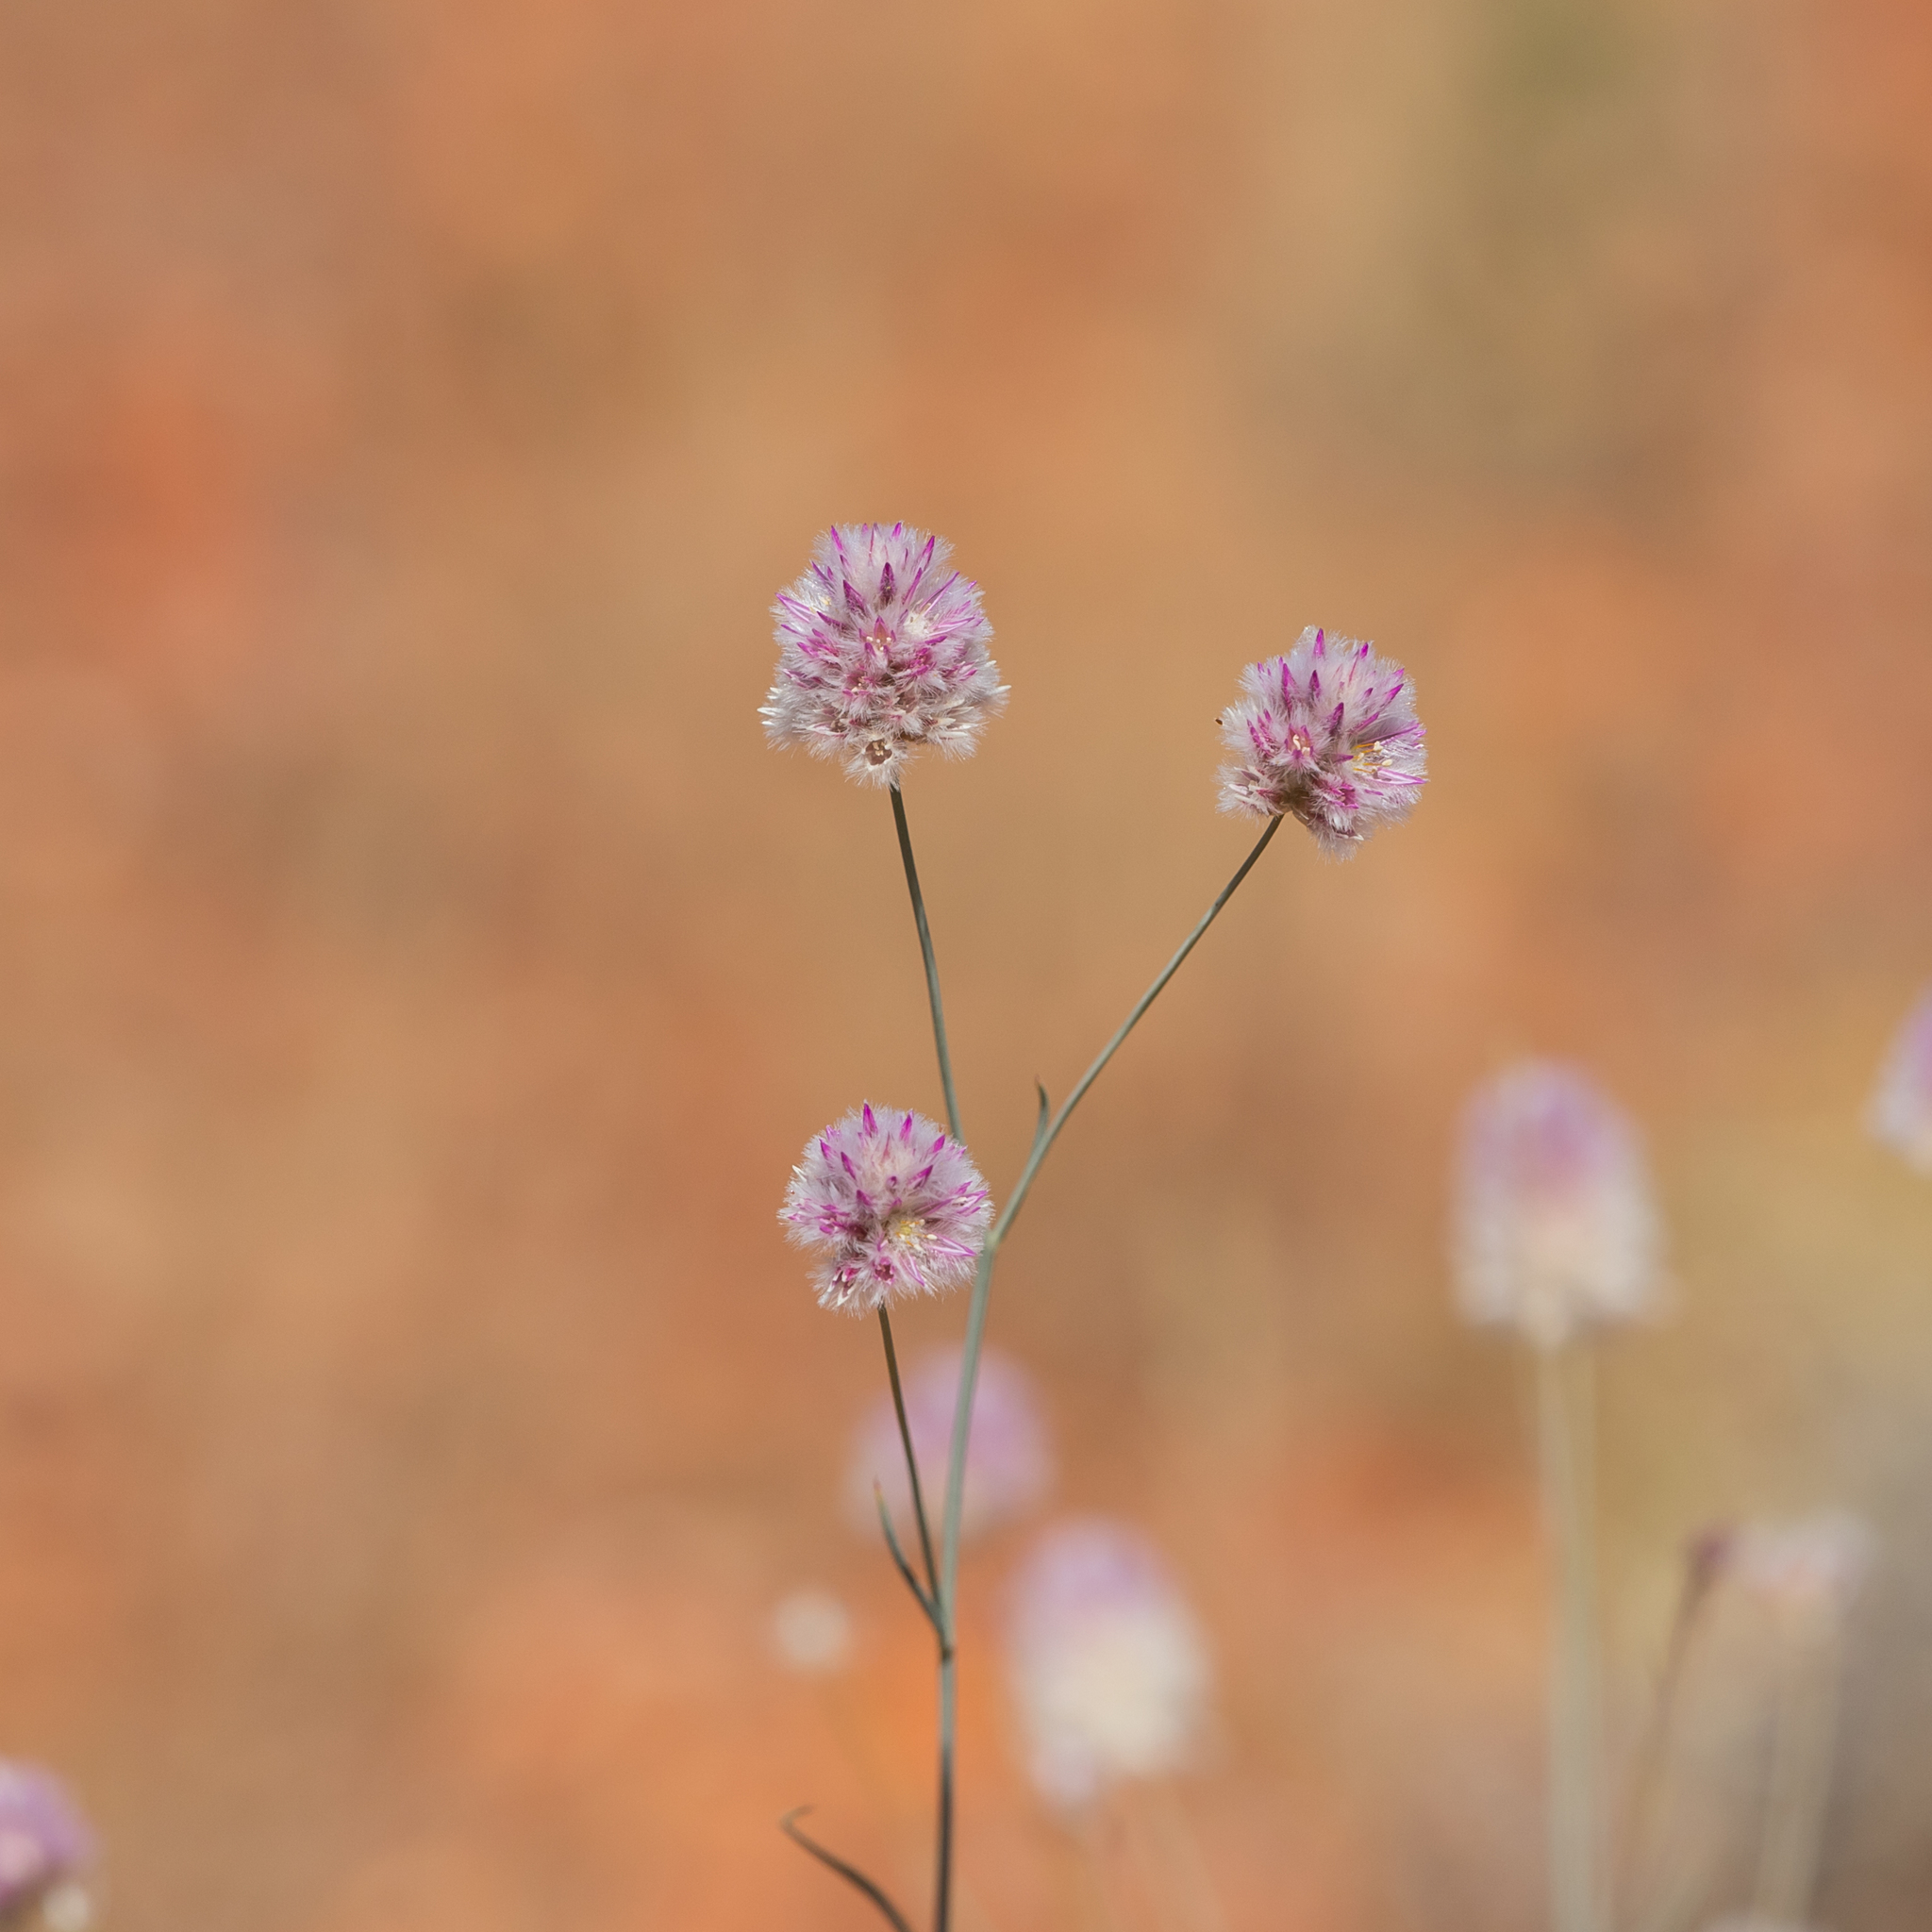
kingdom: Plantae
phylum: Tracheophyta
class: Magnoliopsida
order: Caryophyllales
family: Amaranthaceae
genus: Ptilotus
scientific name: Ptilotus schwartzii
